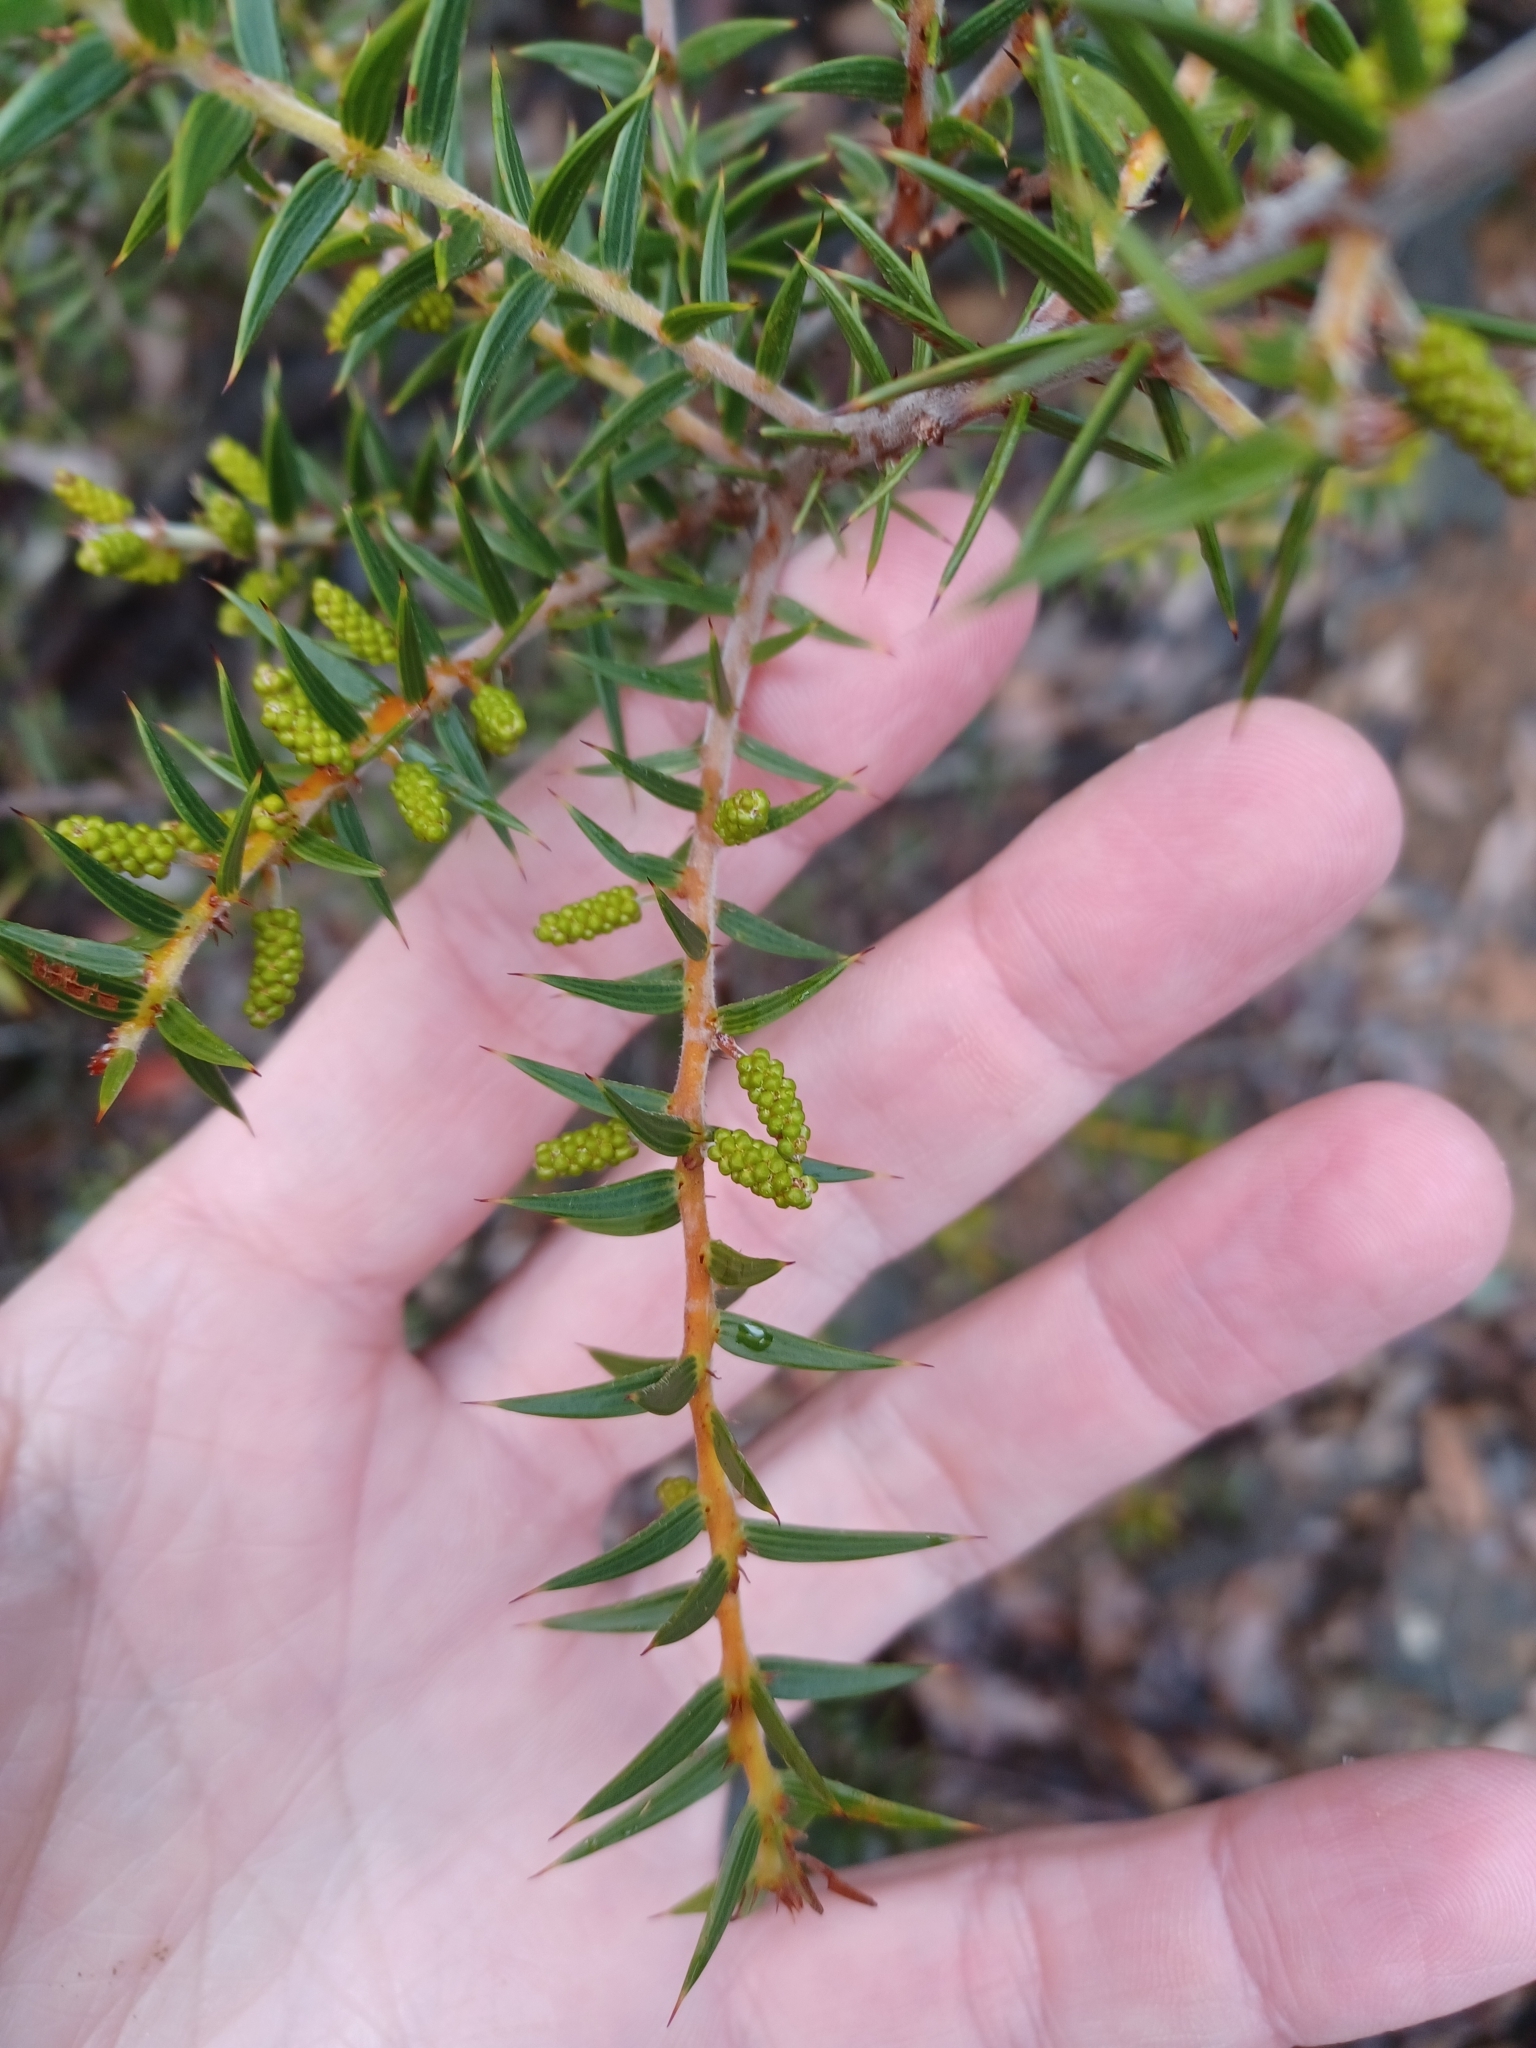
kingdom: Plantae
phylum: Tracheophyta
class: Magnoliopsida
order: Fabales
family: Fabaceae
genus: Acacia
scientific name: Acacia oxycedrus
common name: Spike wattle
